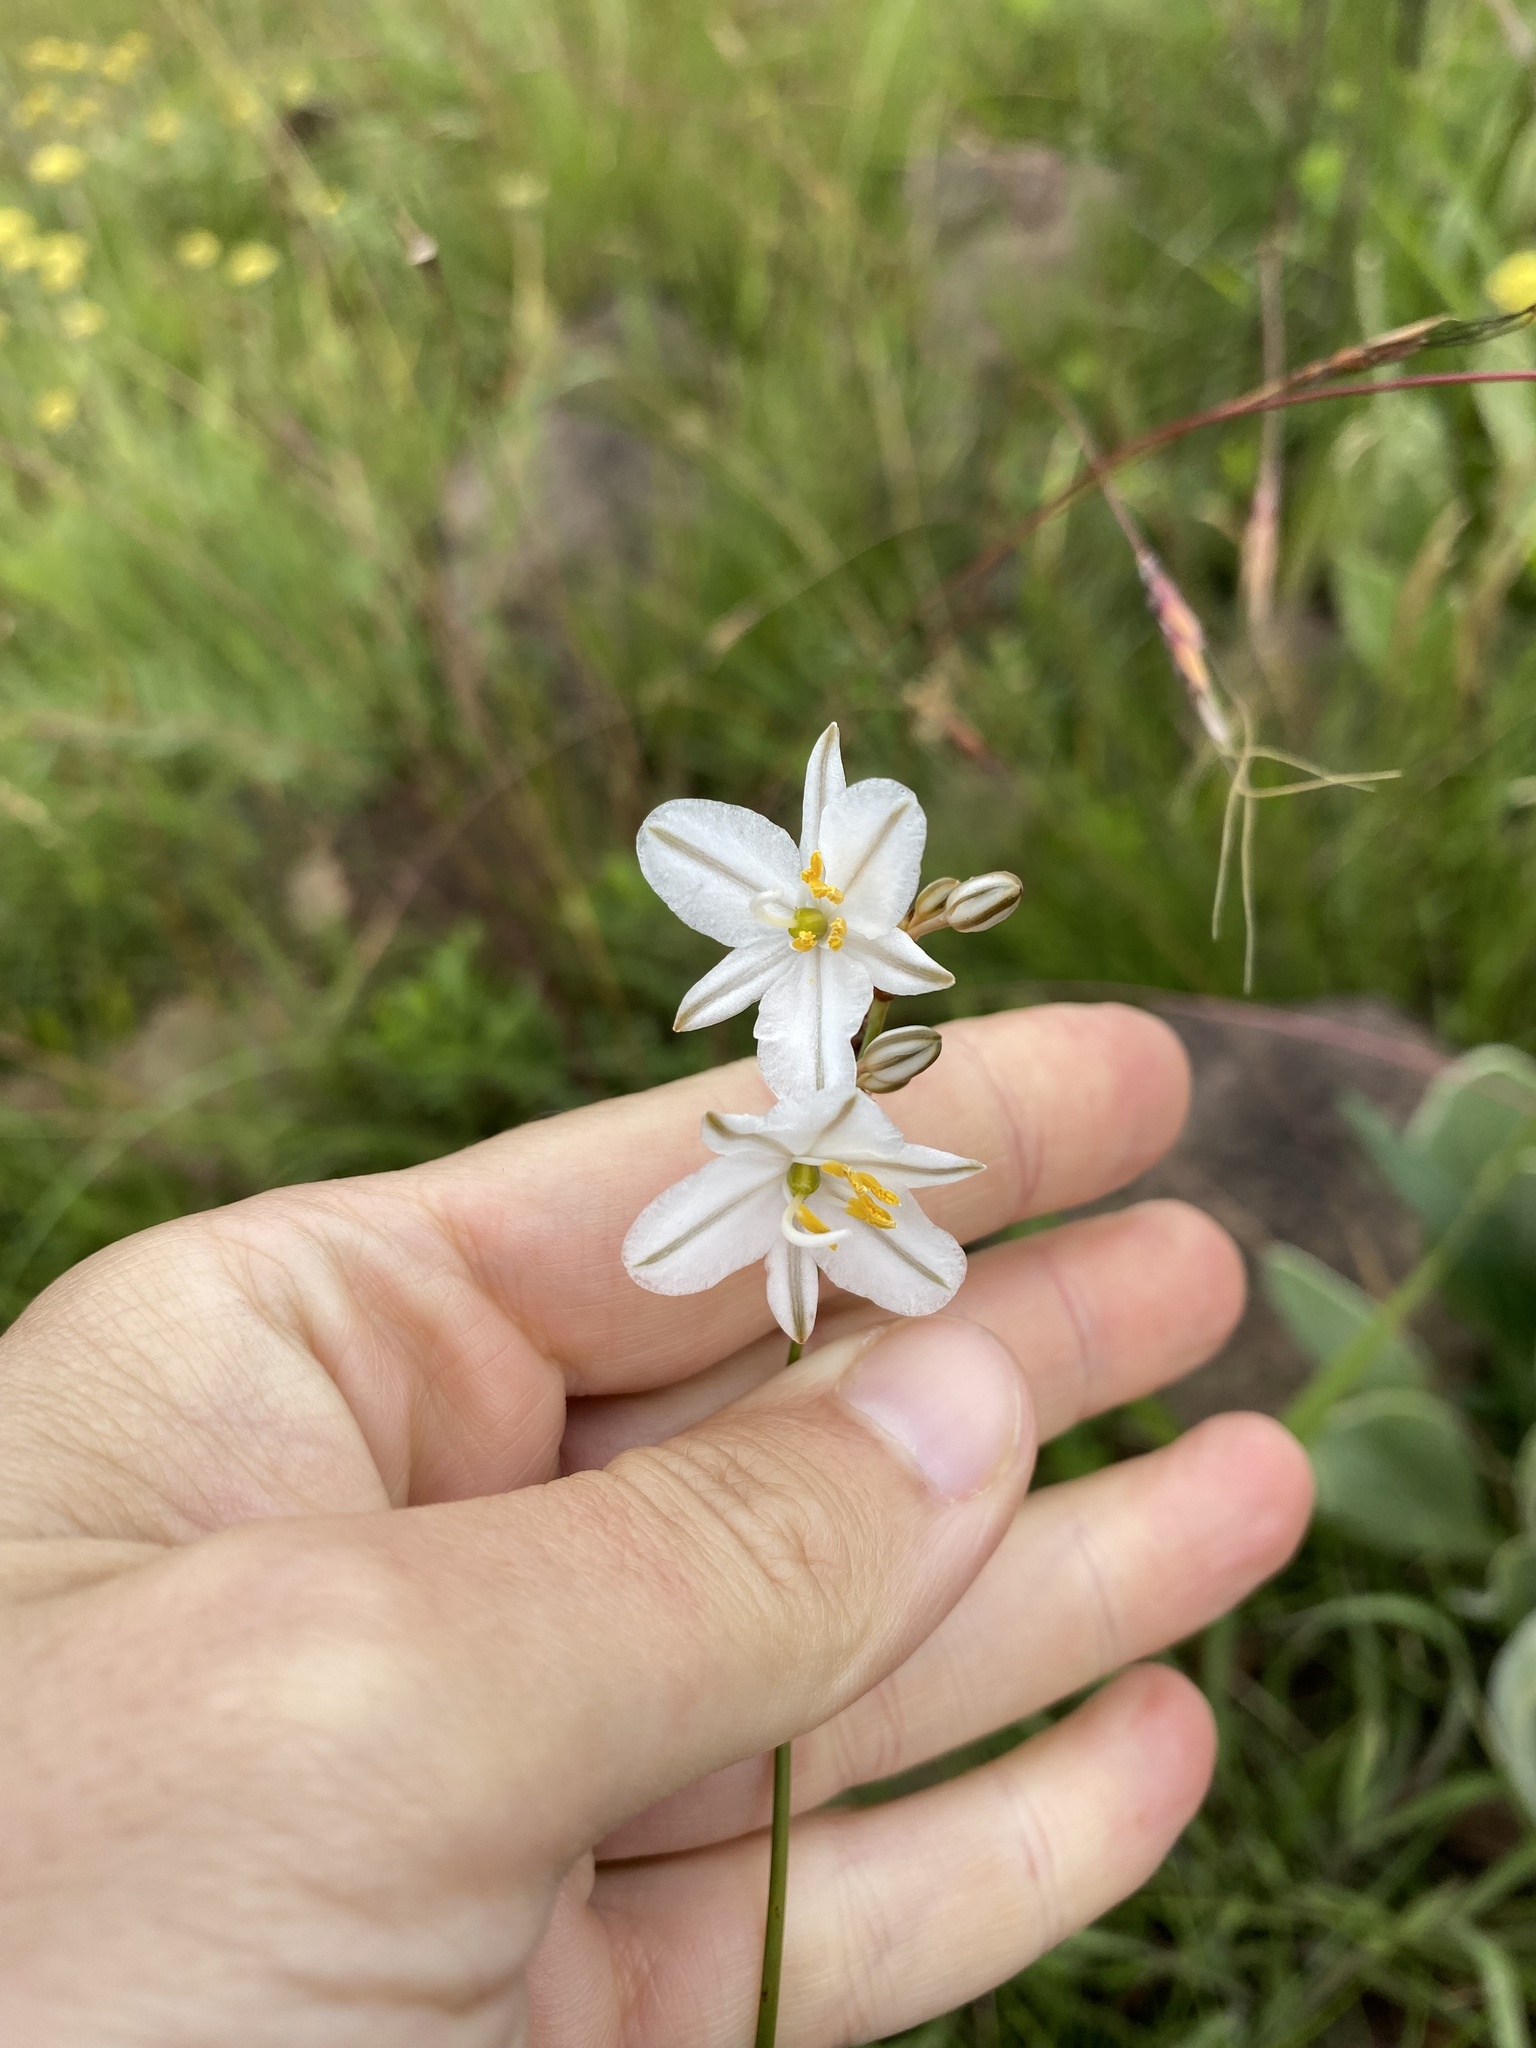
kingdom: Plantae
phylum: Tracheophyta
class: Liliopsida
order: Asparagales
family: Asparagaceae
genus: Chlorophytum
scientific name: Chlorophytum saundersiae
